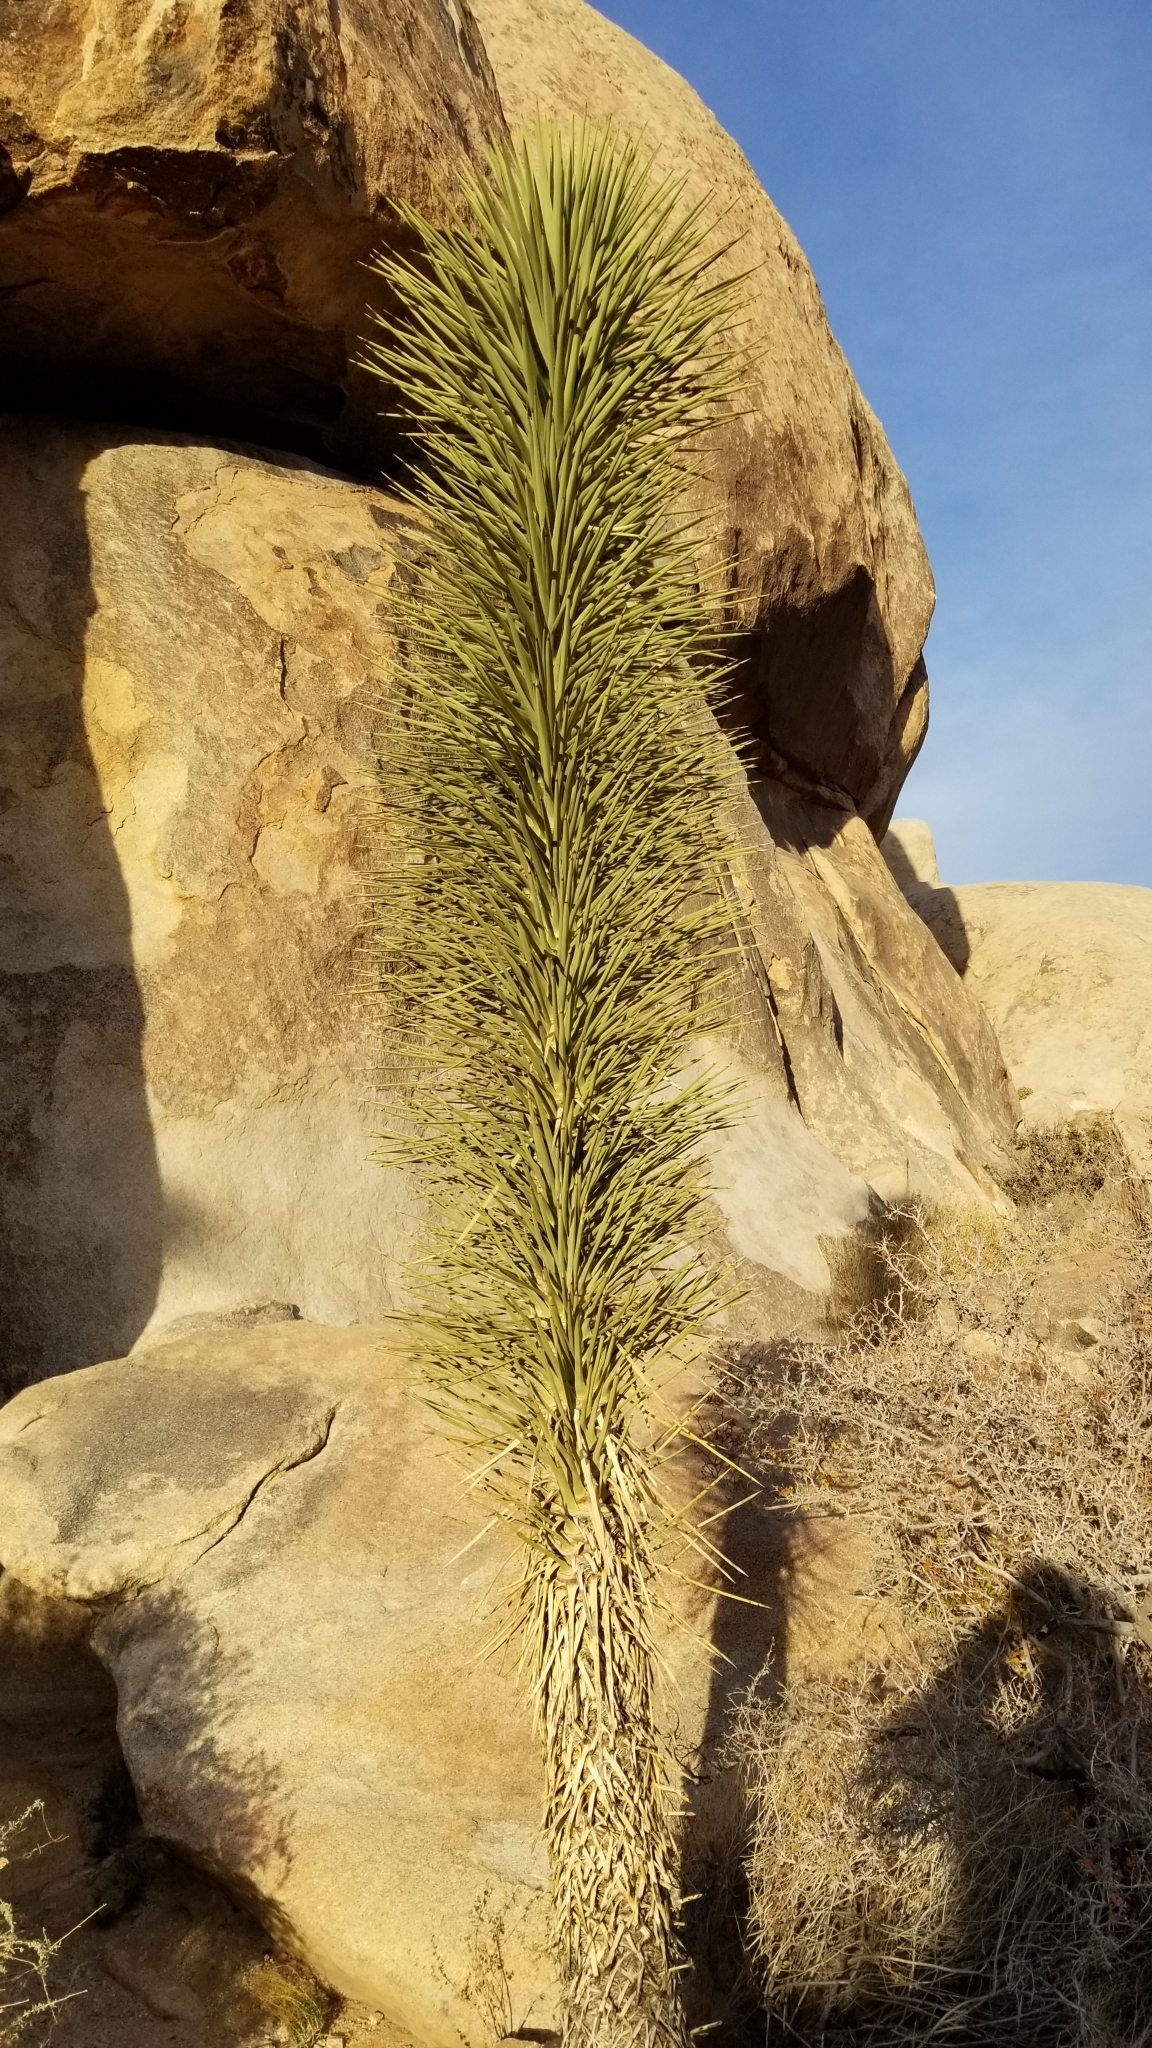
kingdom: Plantae
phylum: Tracheophyta
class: Liliopsida
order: Asparagales
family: Asparagaceae
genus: Yucca
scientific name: Yucca brevifolia
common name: Joshua tree
